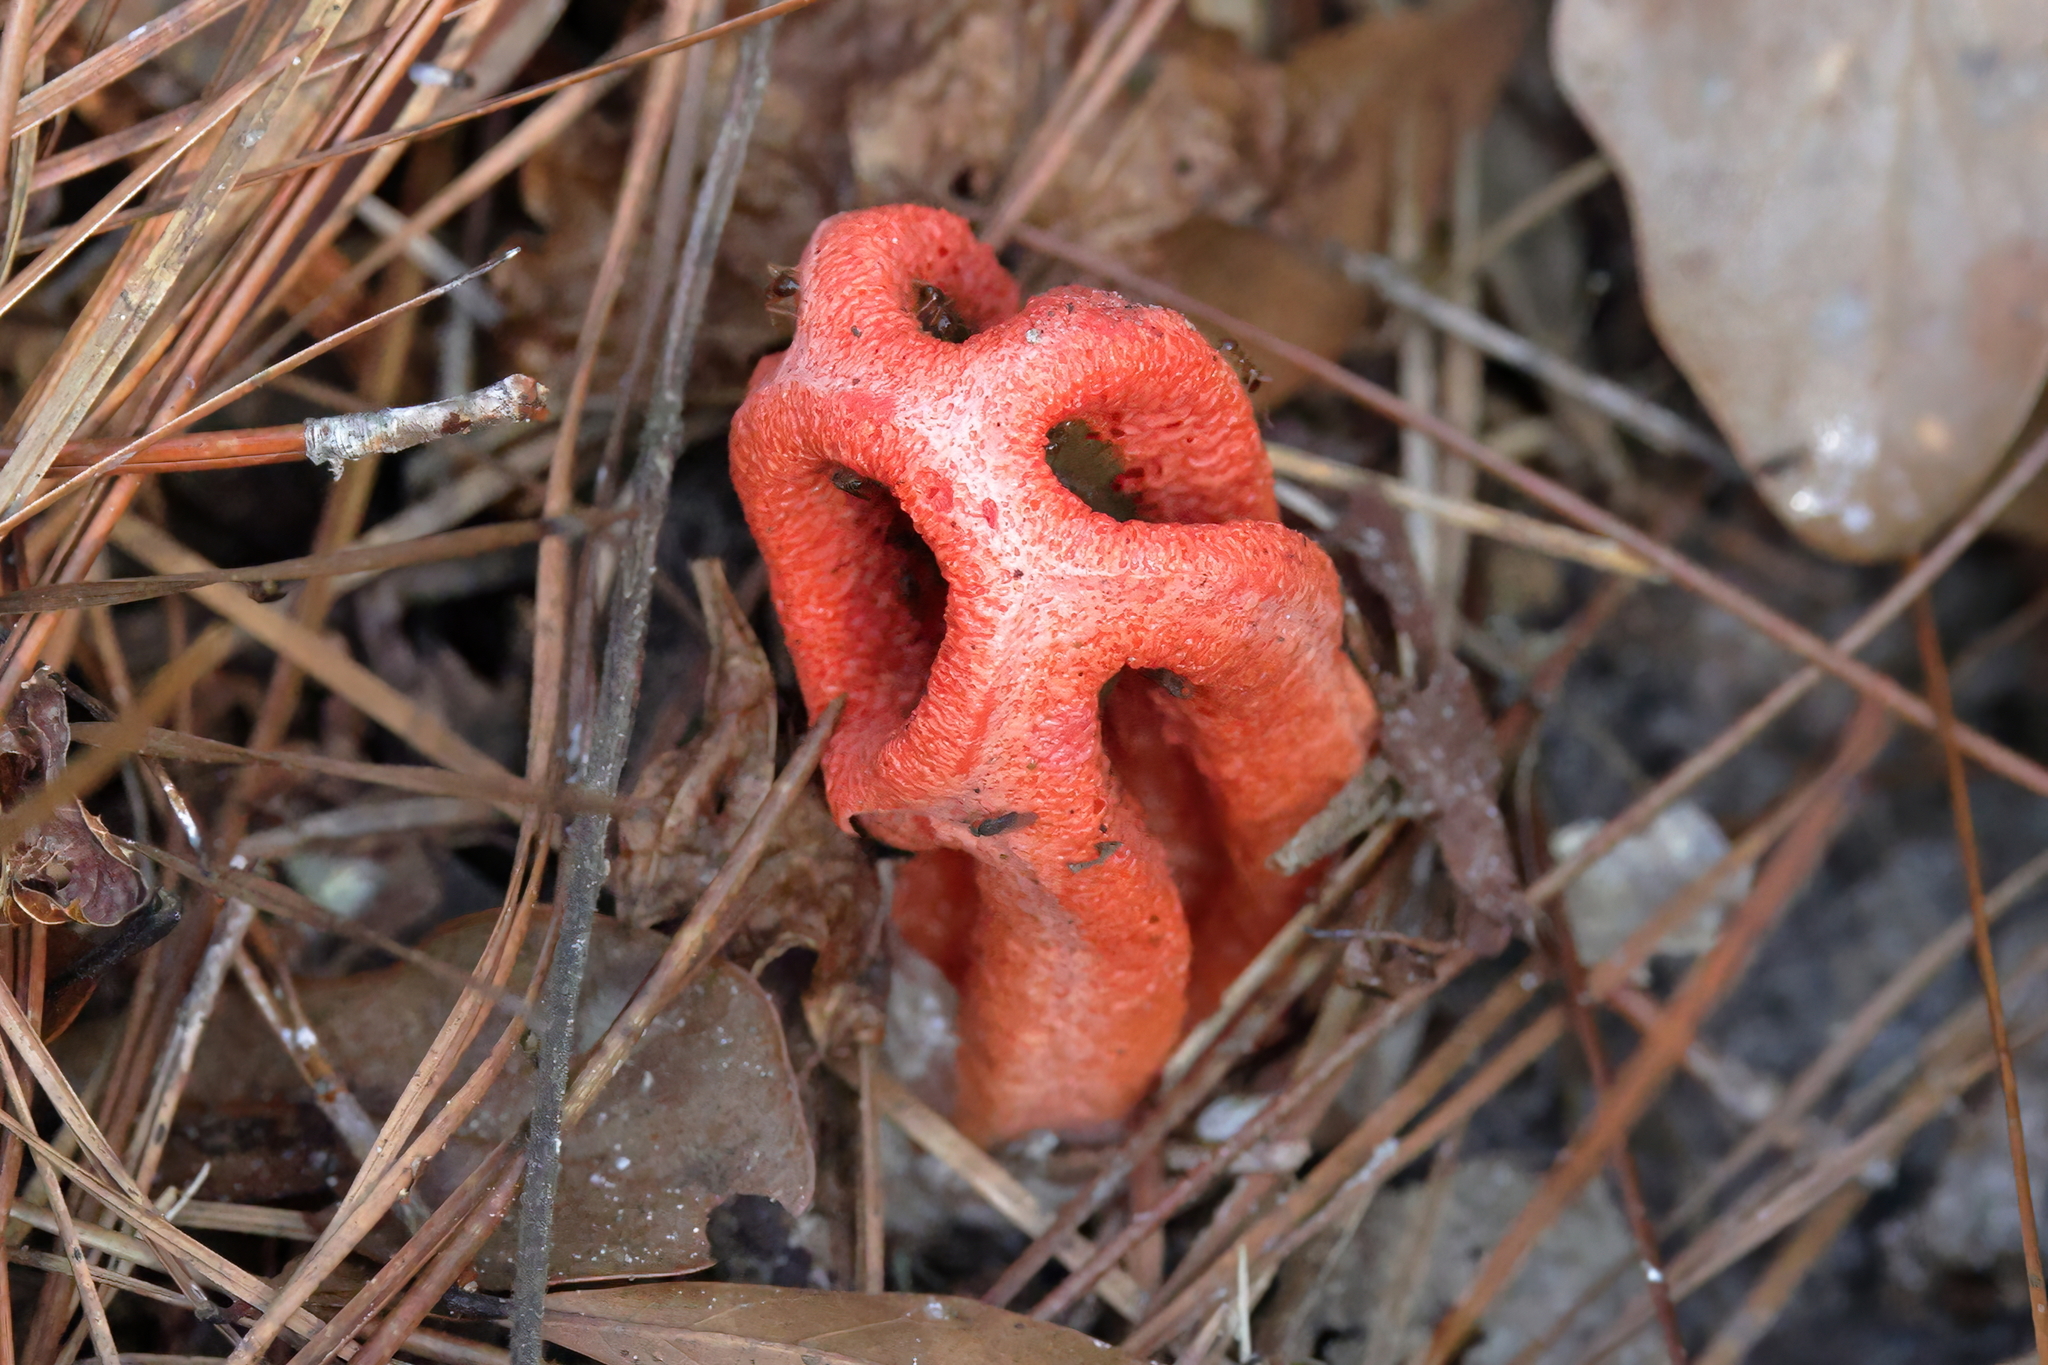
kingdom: Fungi
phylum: Basidiomycota
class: Agaricomycetes
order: Phallales
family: Phallaceae
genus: Clathrus
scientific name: Clathrus columnatus
